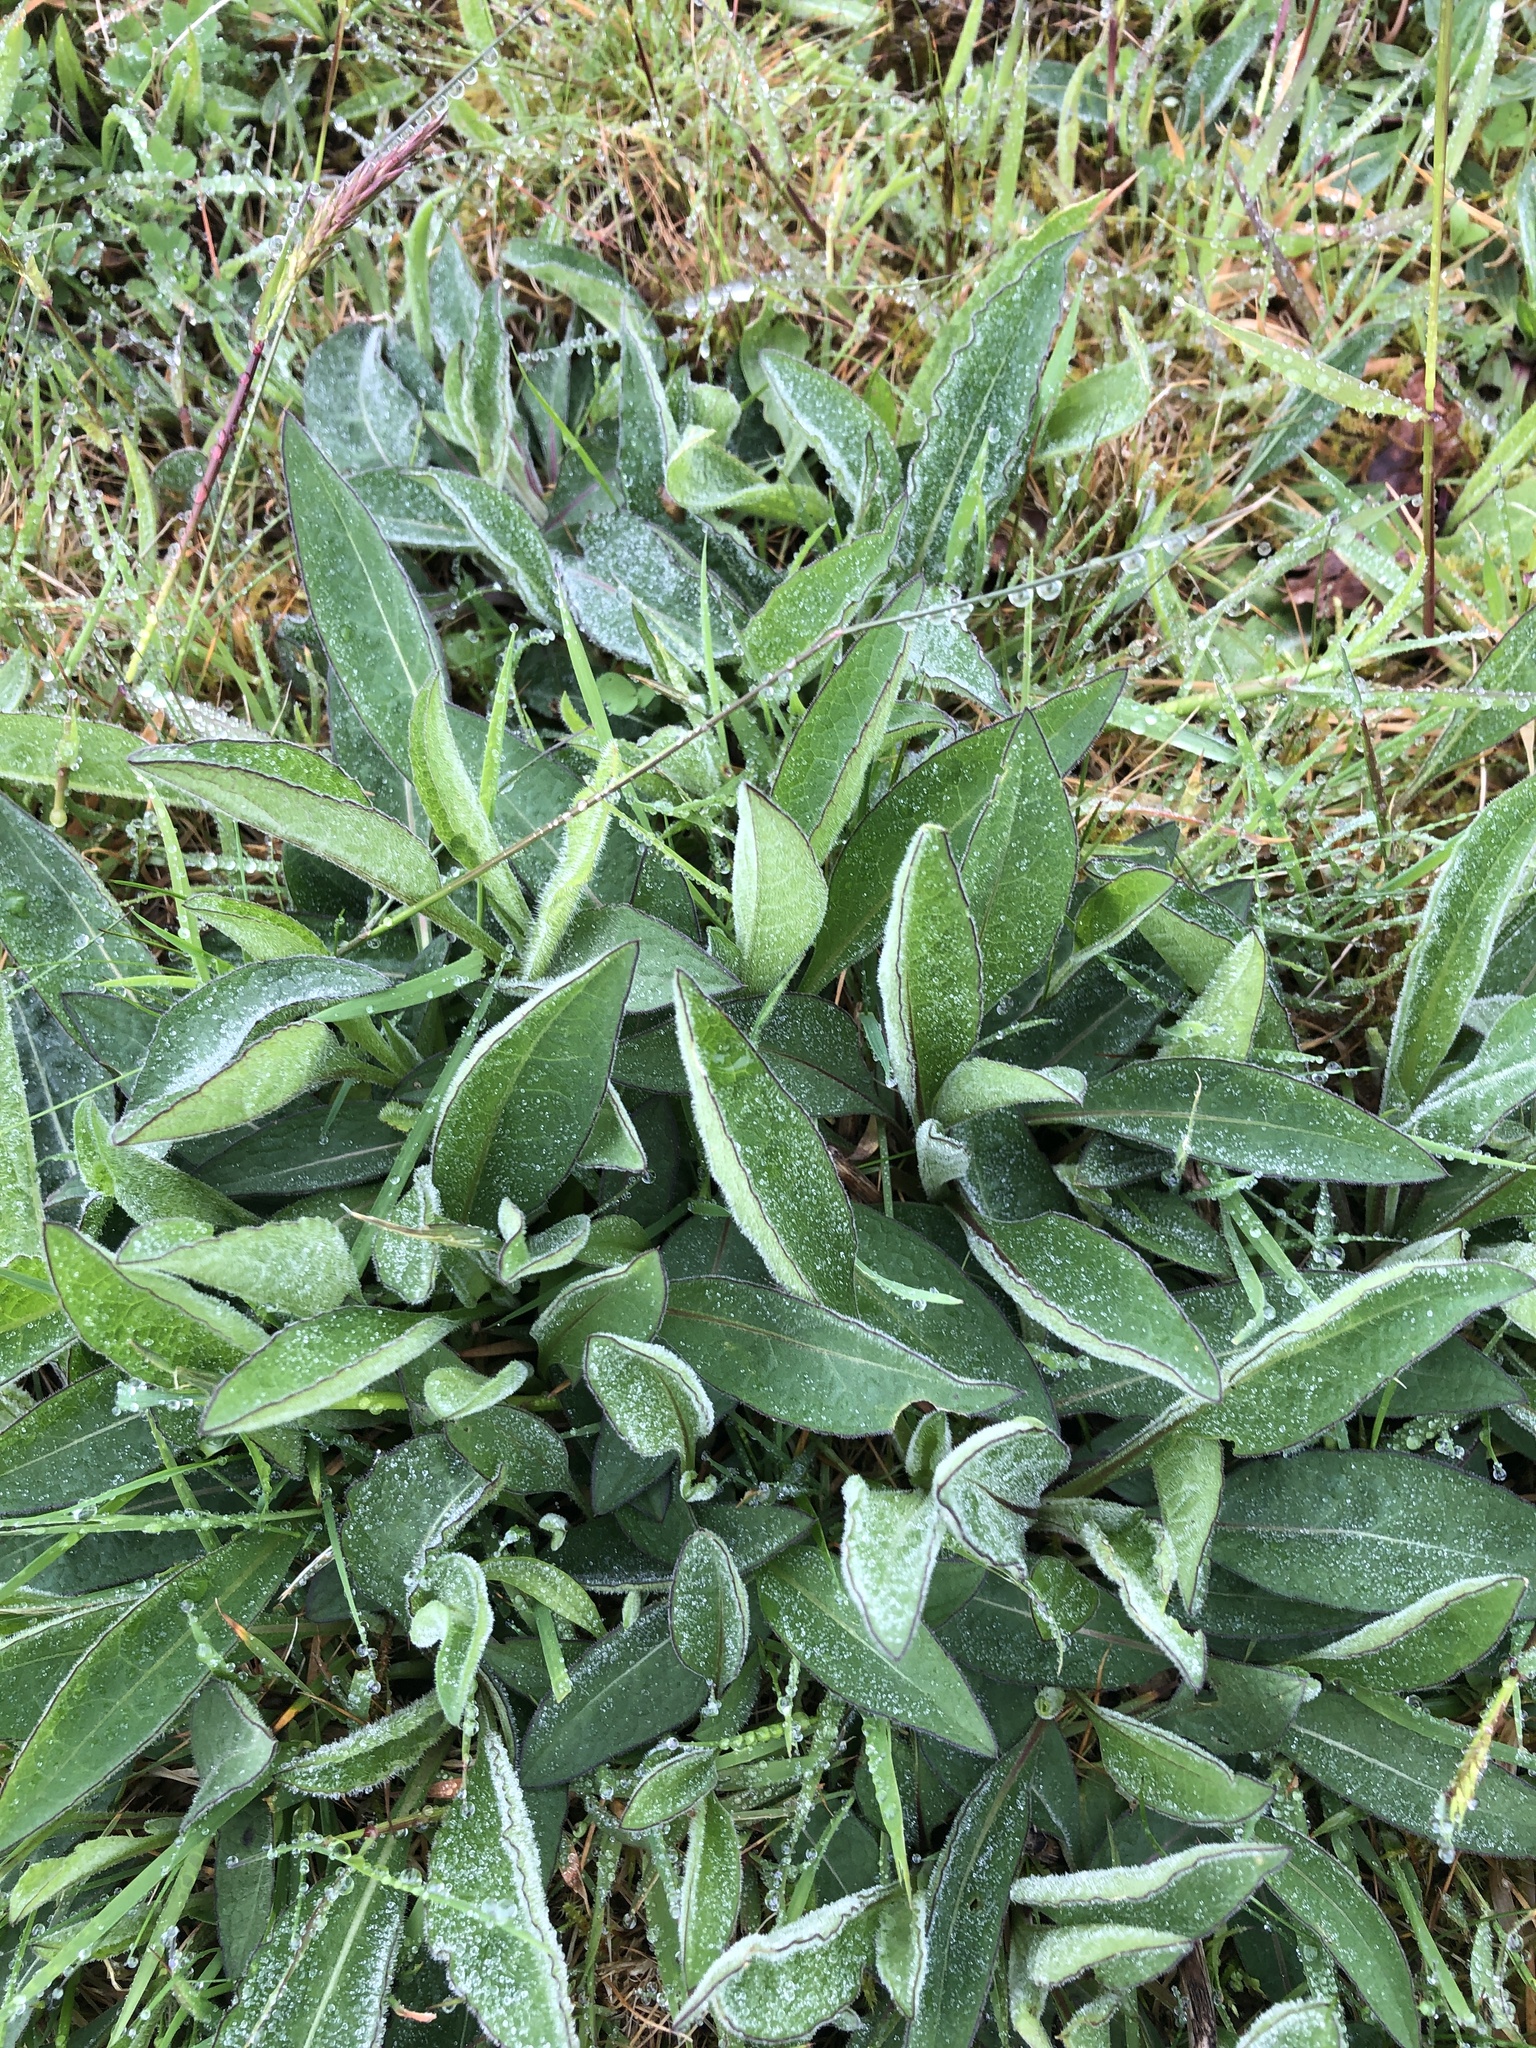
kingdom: Plantae
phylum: Tracheophyta
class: Magnoliopsida
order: Asterales
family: Asteraceae
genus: Centaurea
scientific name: Centaurea nigra
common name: Lesser knapweed
